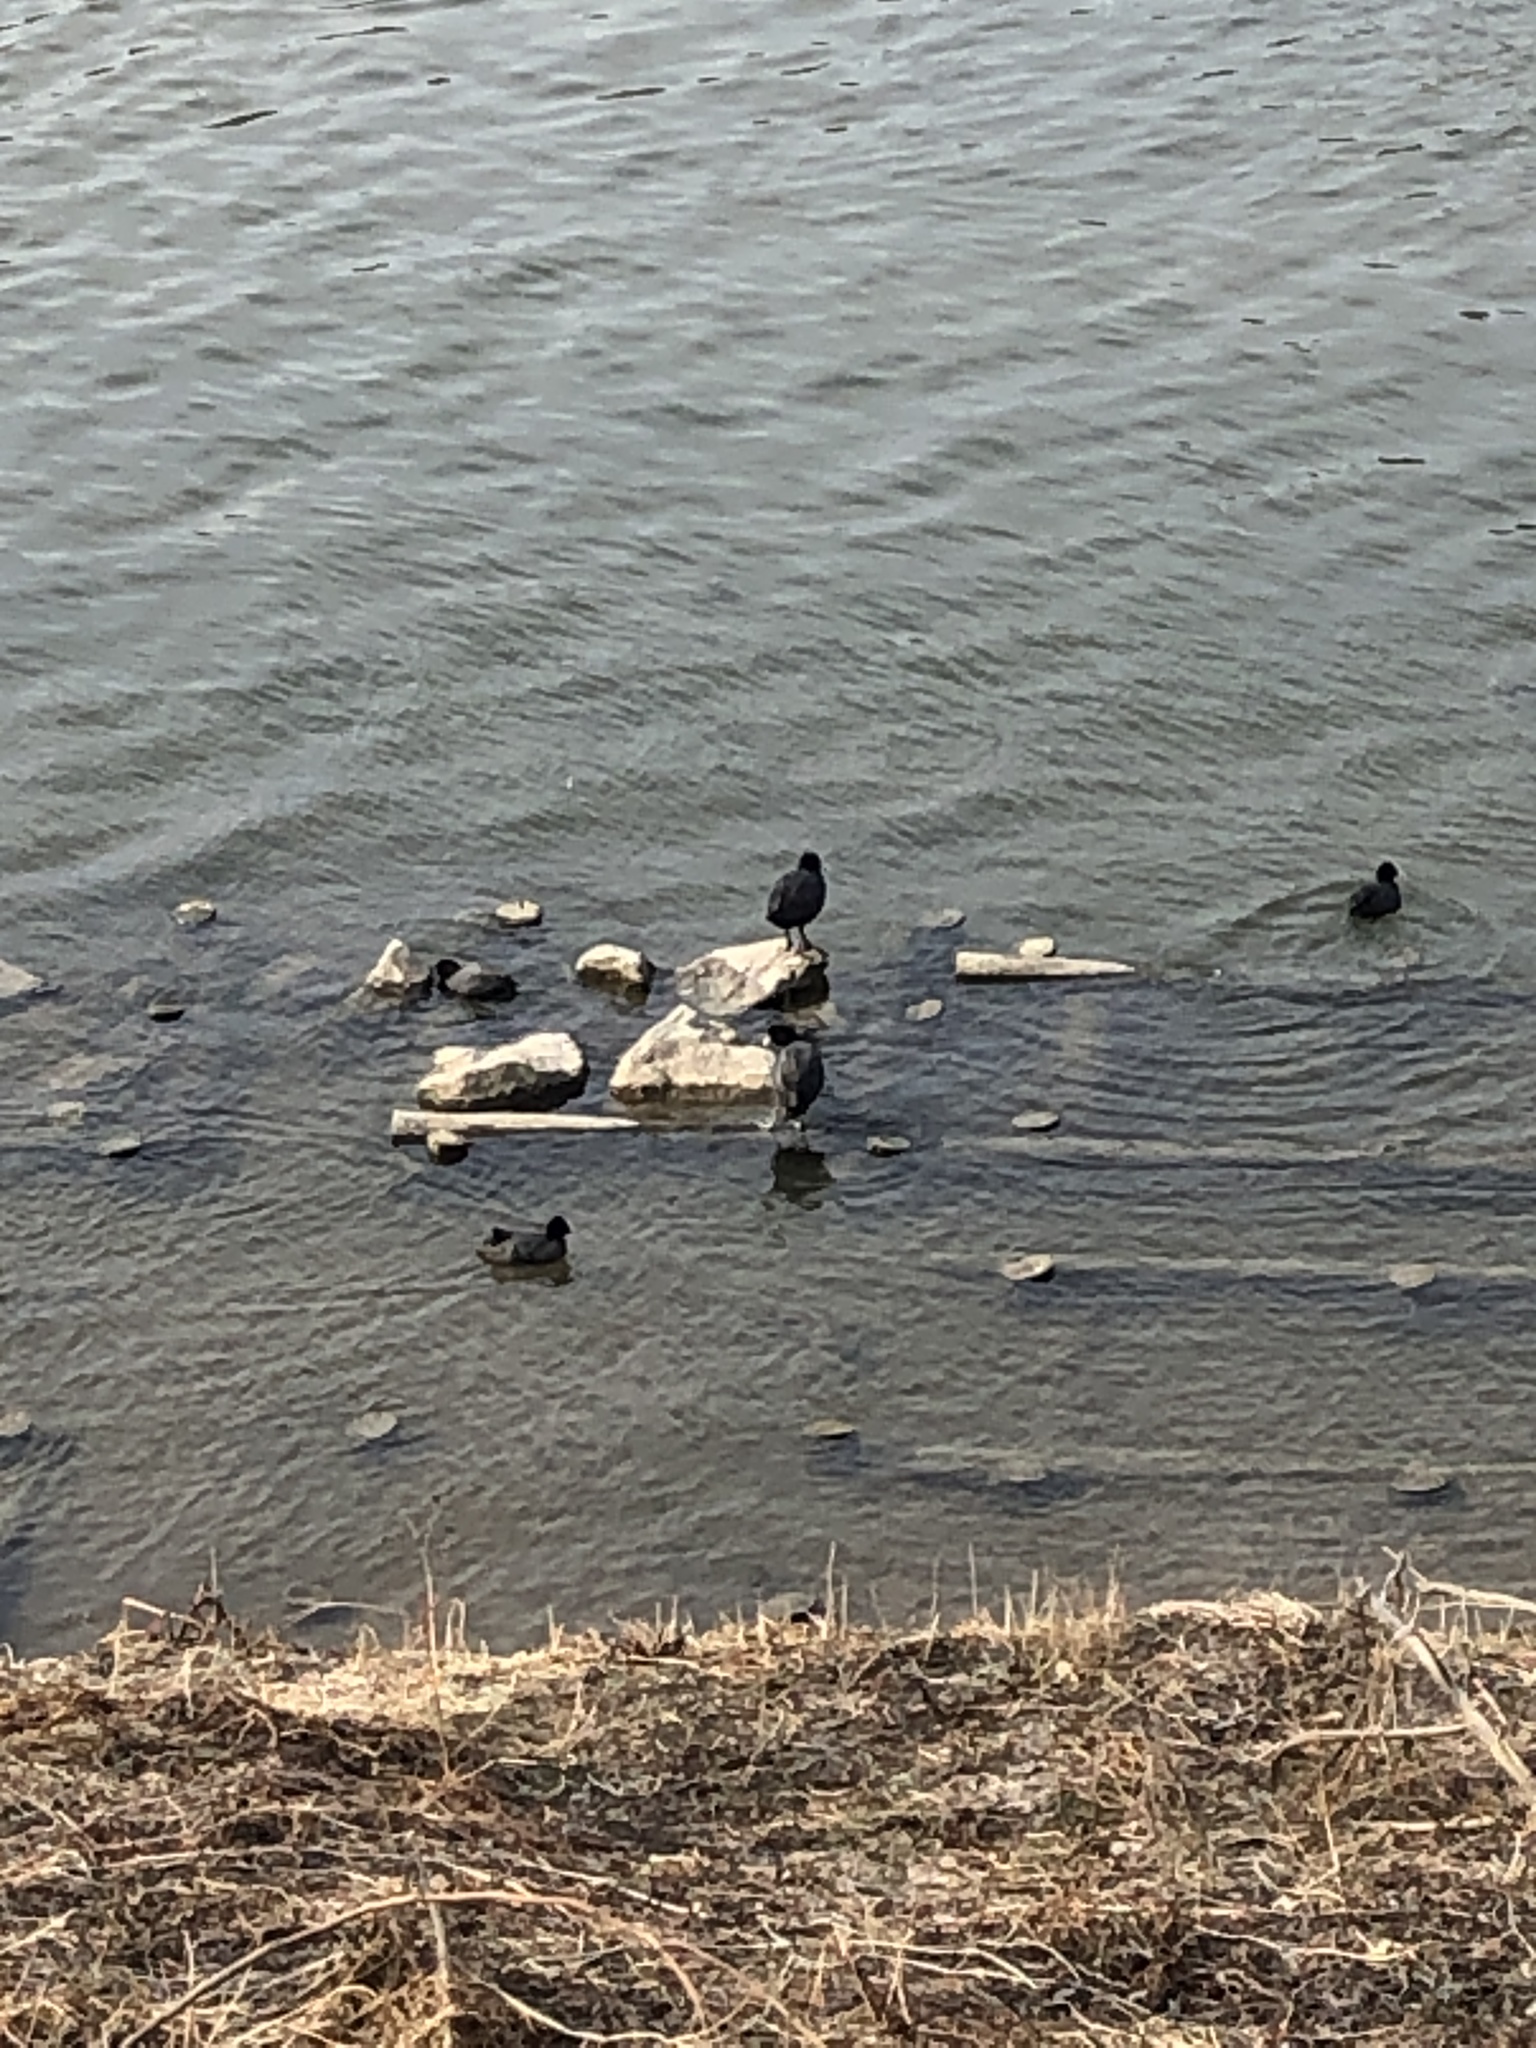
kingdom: Animalia
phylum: Chordata
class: Aves
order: Gruiformes
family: Rallidae
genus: Fulica
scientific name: Fulica atra
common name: Eurasian coot
